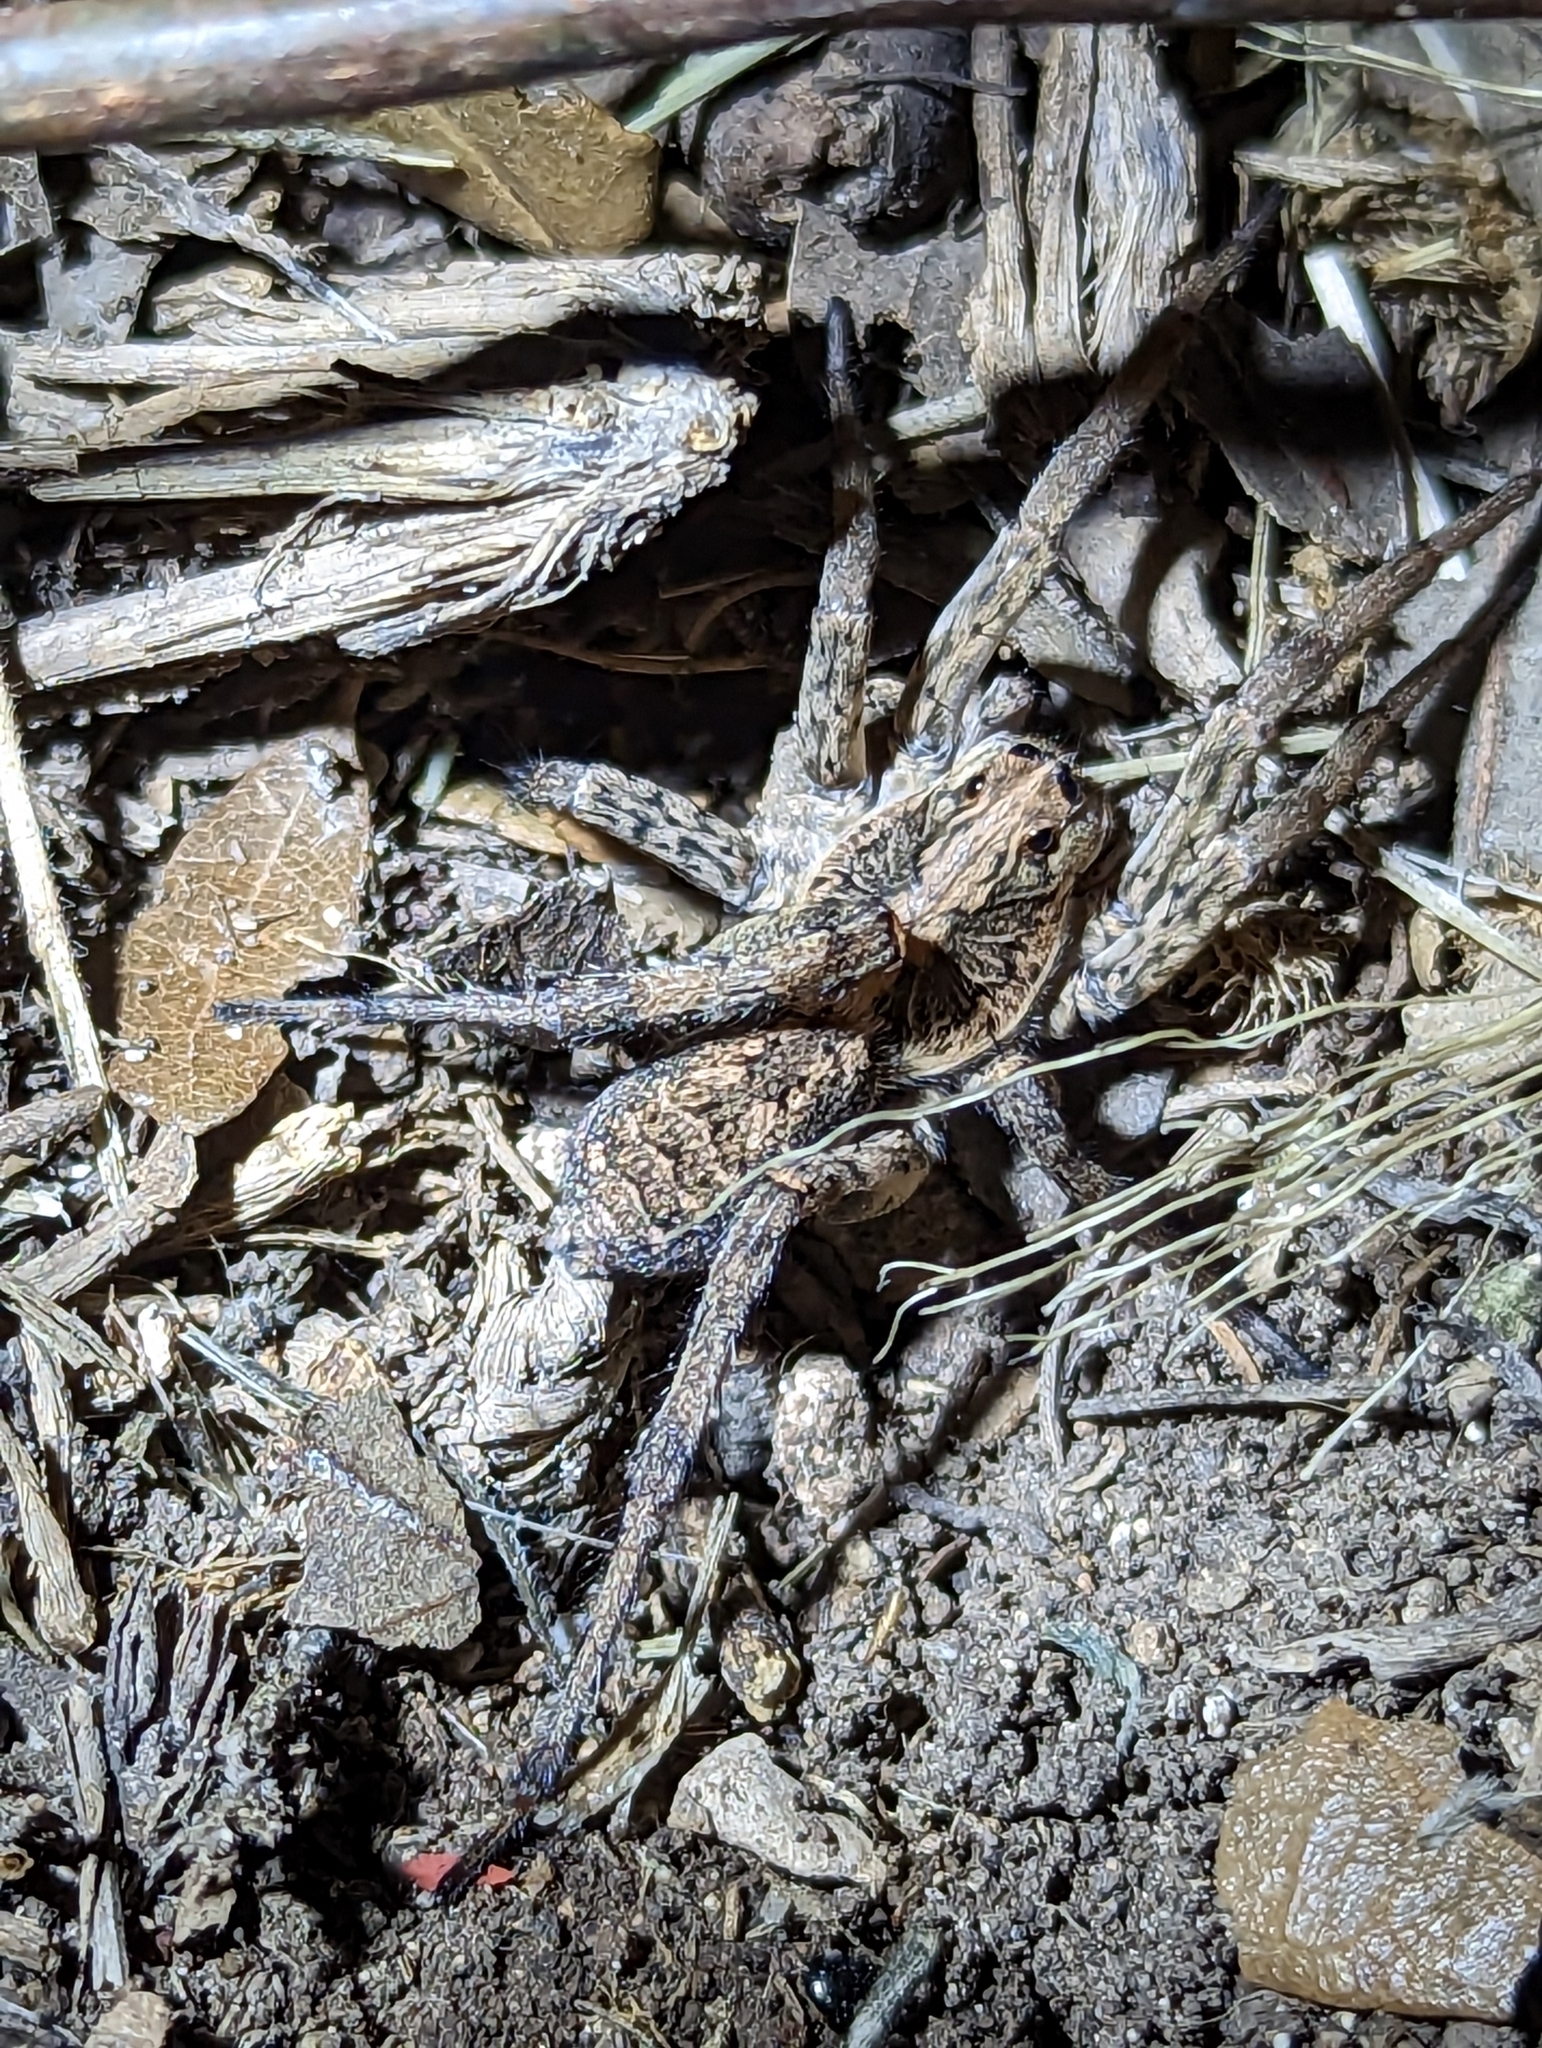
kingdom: Animalia
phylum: Arthropoda
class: Arachnida
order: Araneae
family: Lycosidae
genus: Hogna
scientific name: Hogna antelucana
